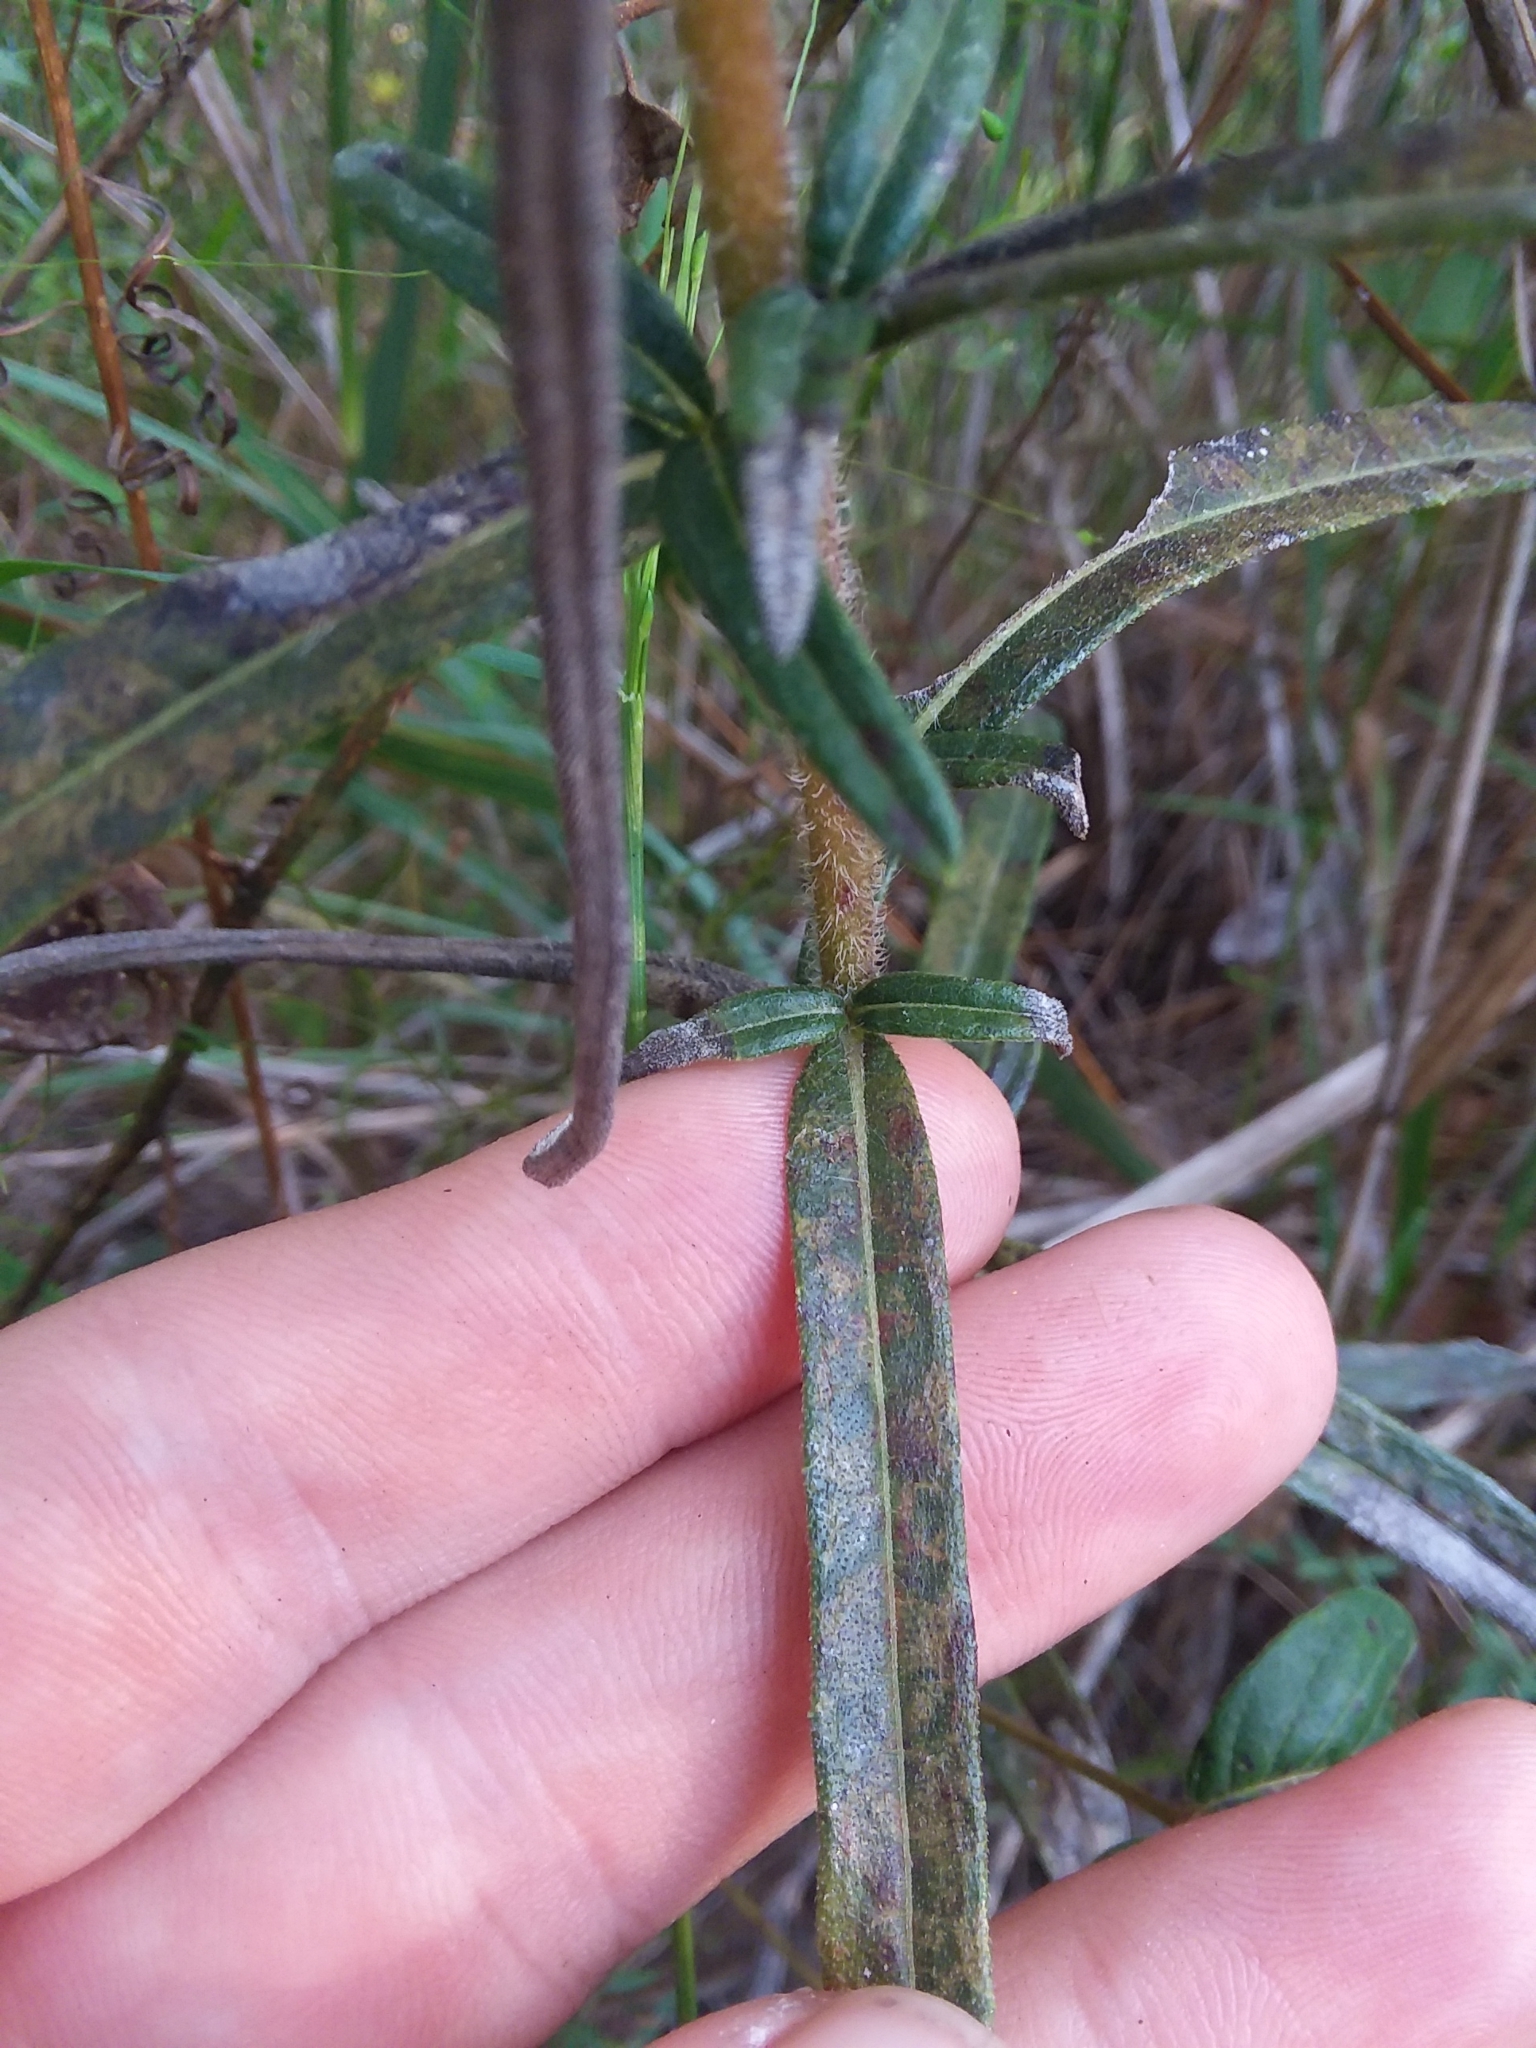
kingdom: Plantae
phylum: Tracheophyta
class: Magnoliopsida
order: Asterales
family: Asteraceae
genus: Helianthus
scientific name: Helianthus angustifolius
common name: Swamp sunflower
